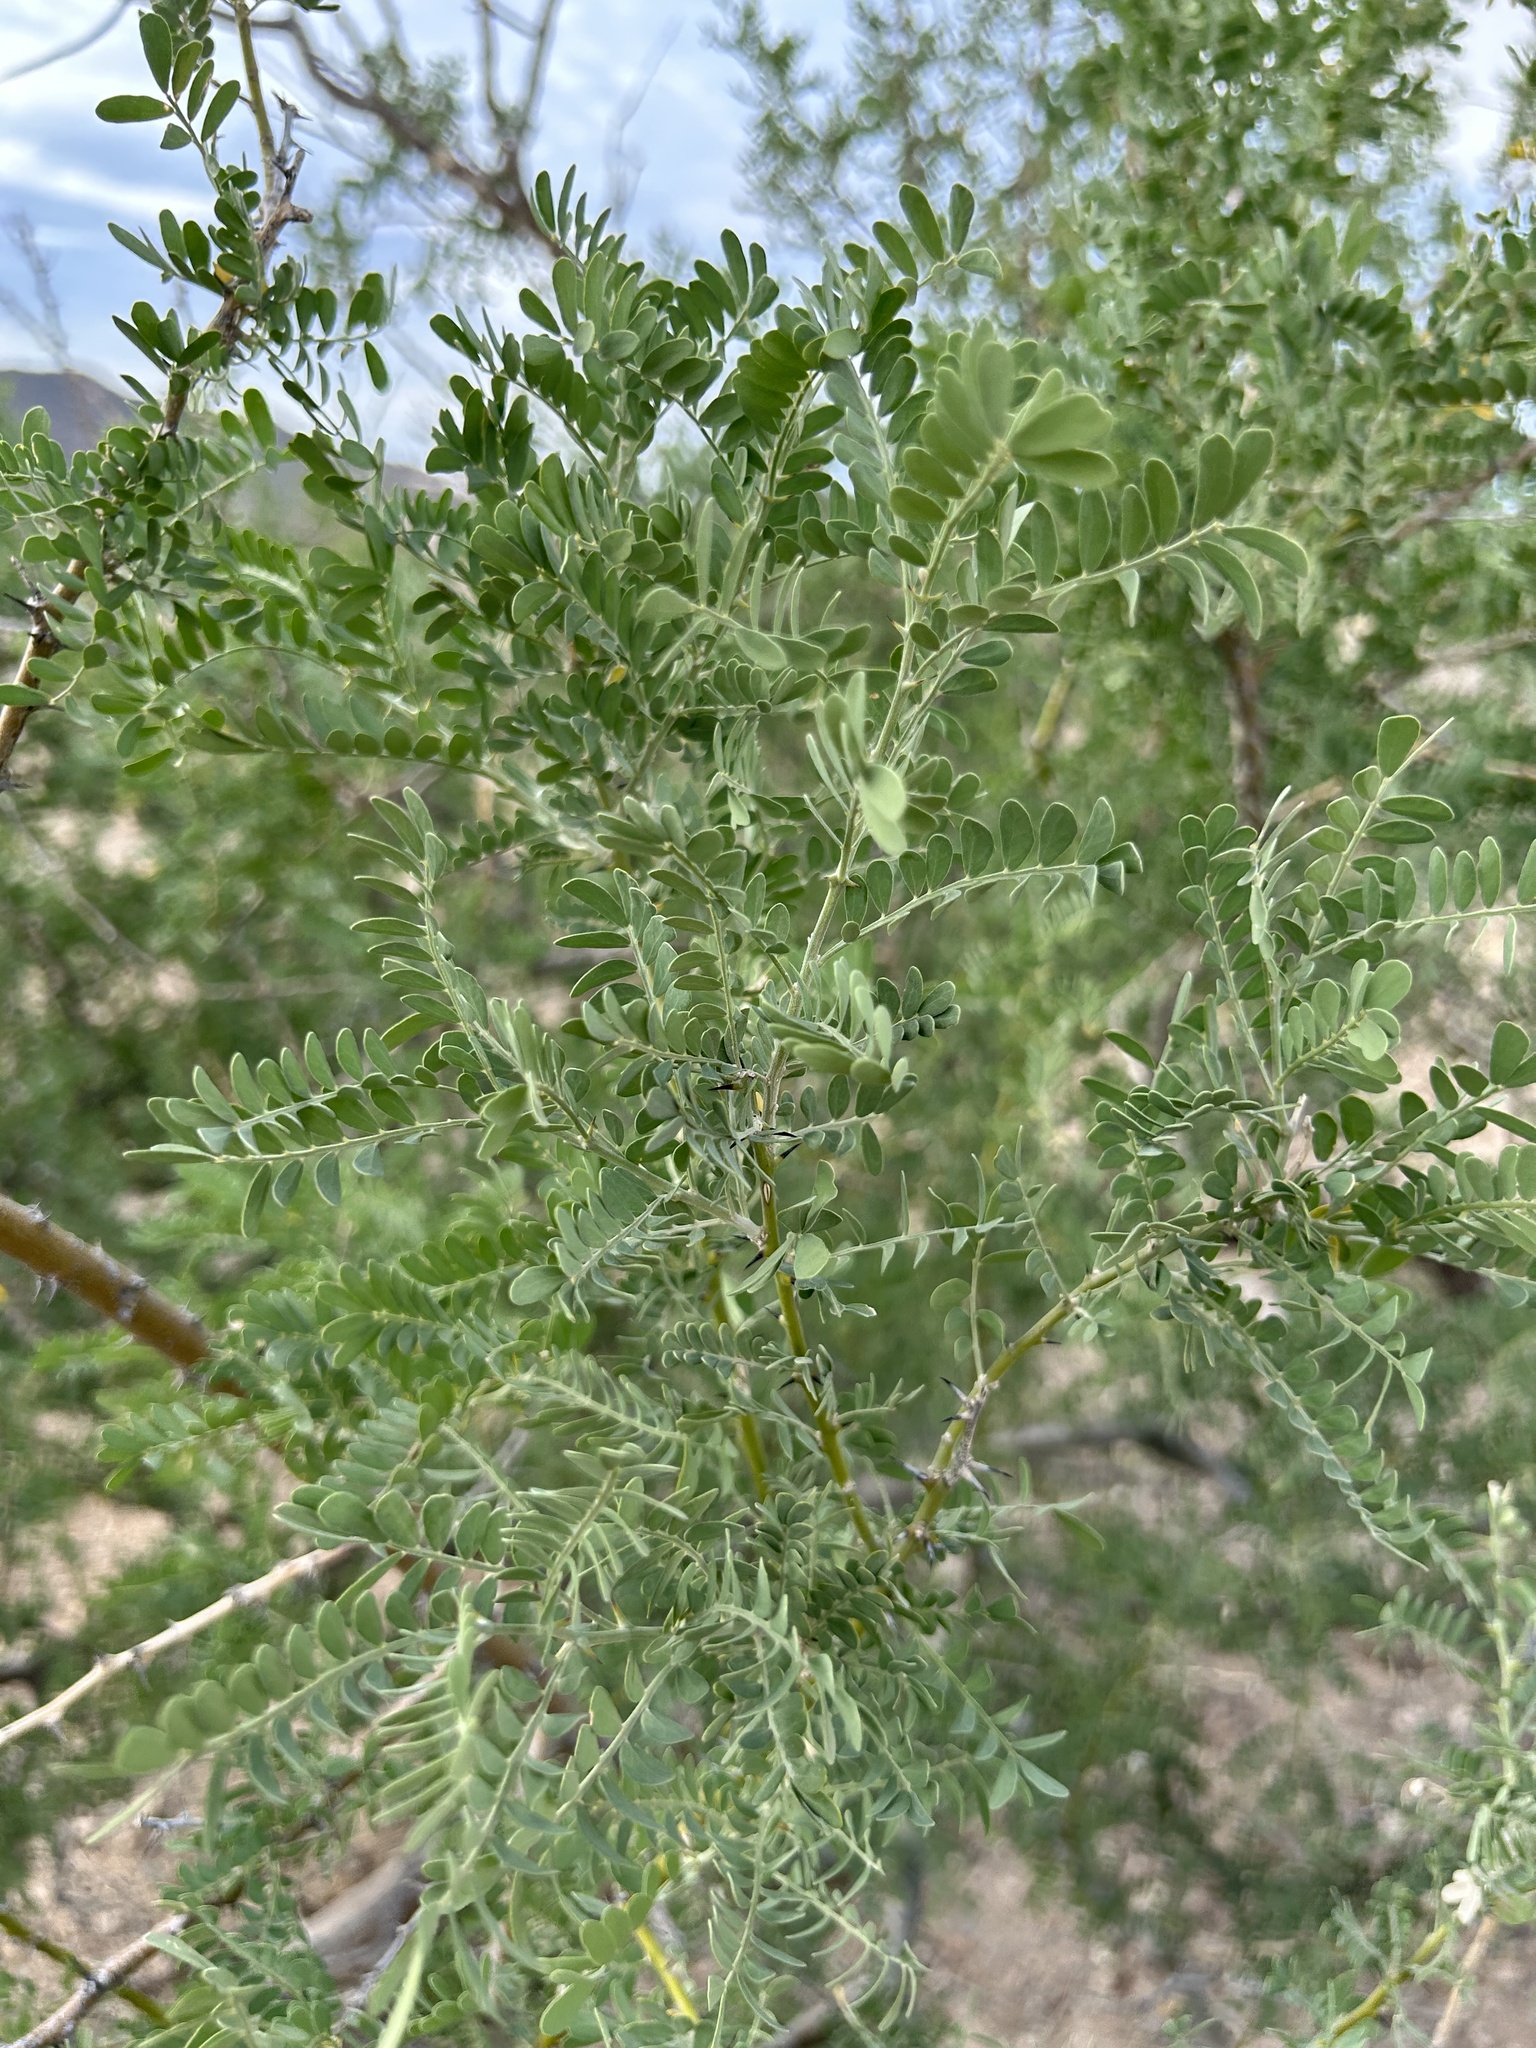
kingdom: Plantae
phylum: Tracheophyta
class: Magnoliopsida
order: Fabales
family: Fabaceae
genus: Olneya
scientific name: Olneya tesota
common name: Desert ironwood
